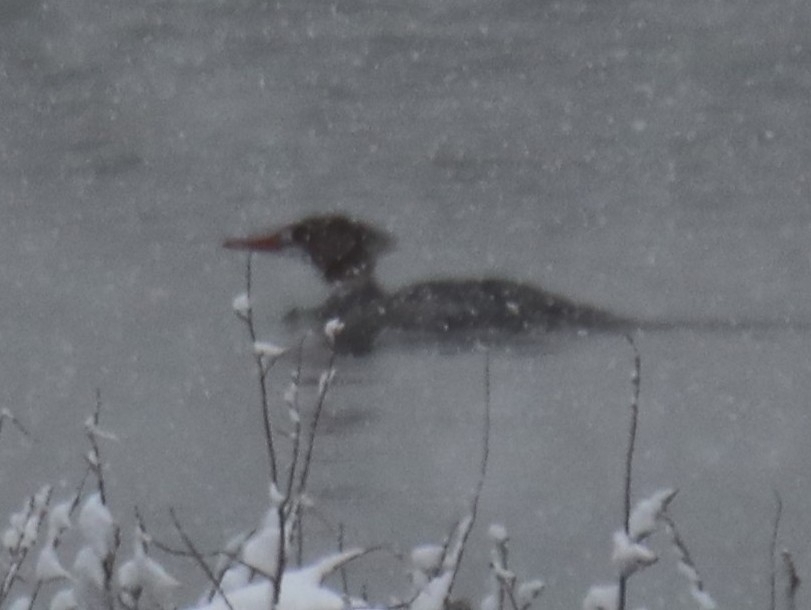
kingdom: Animalia
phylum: Chordata
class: Aves
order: Anseriformes
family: Anatidae
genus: Mergus
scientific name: Mergus merganser
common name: Common merganser
